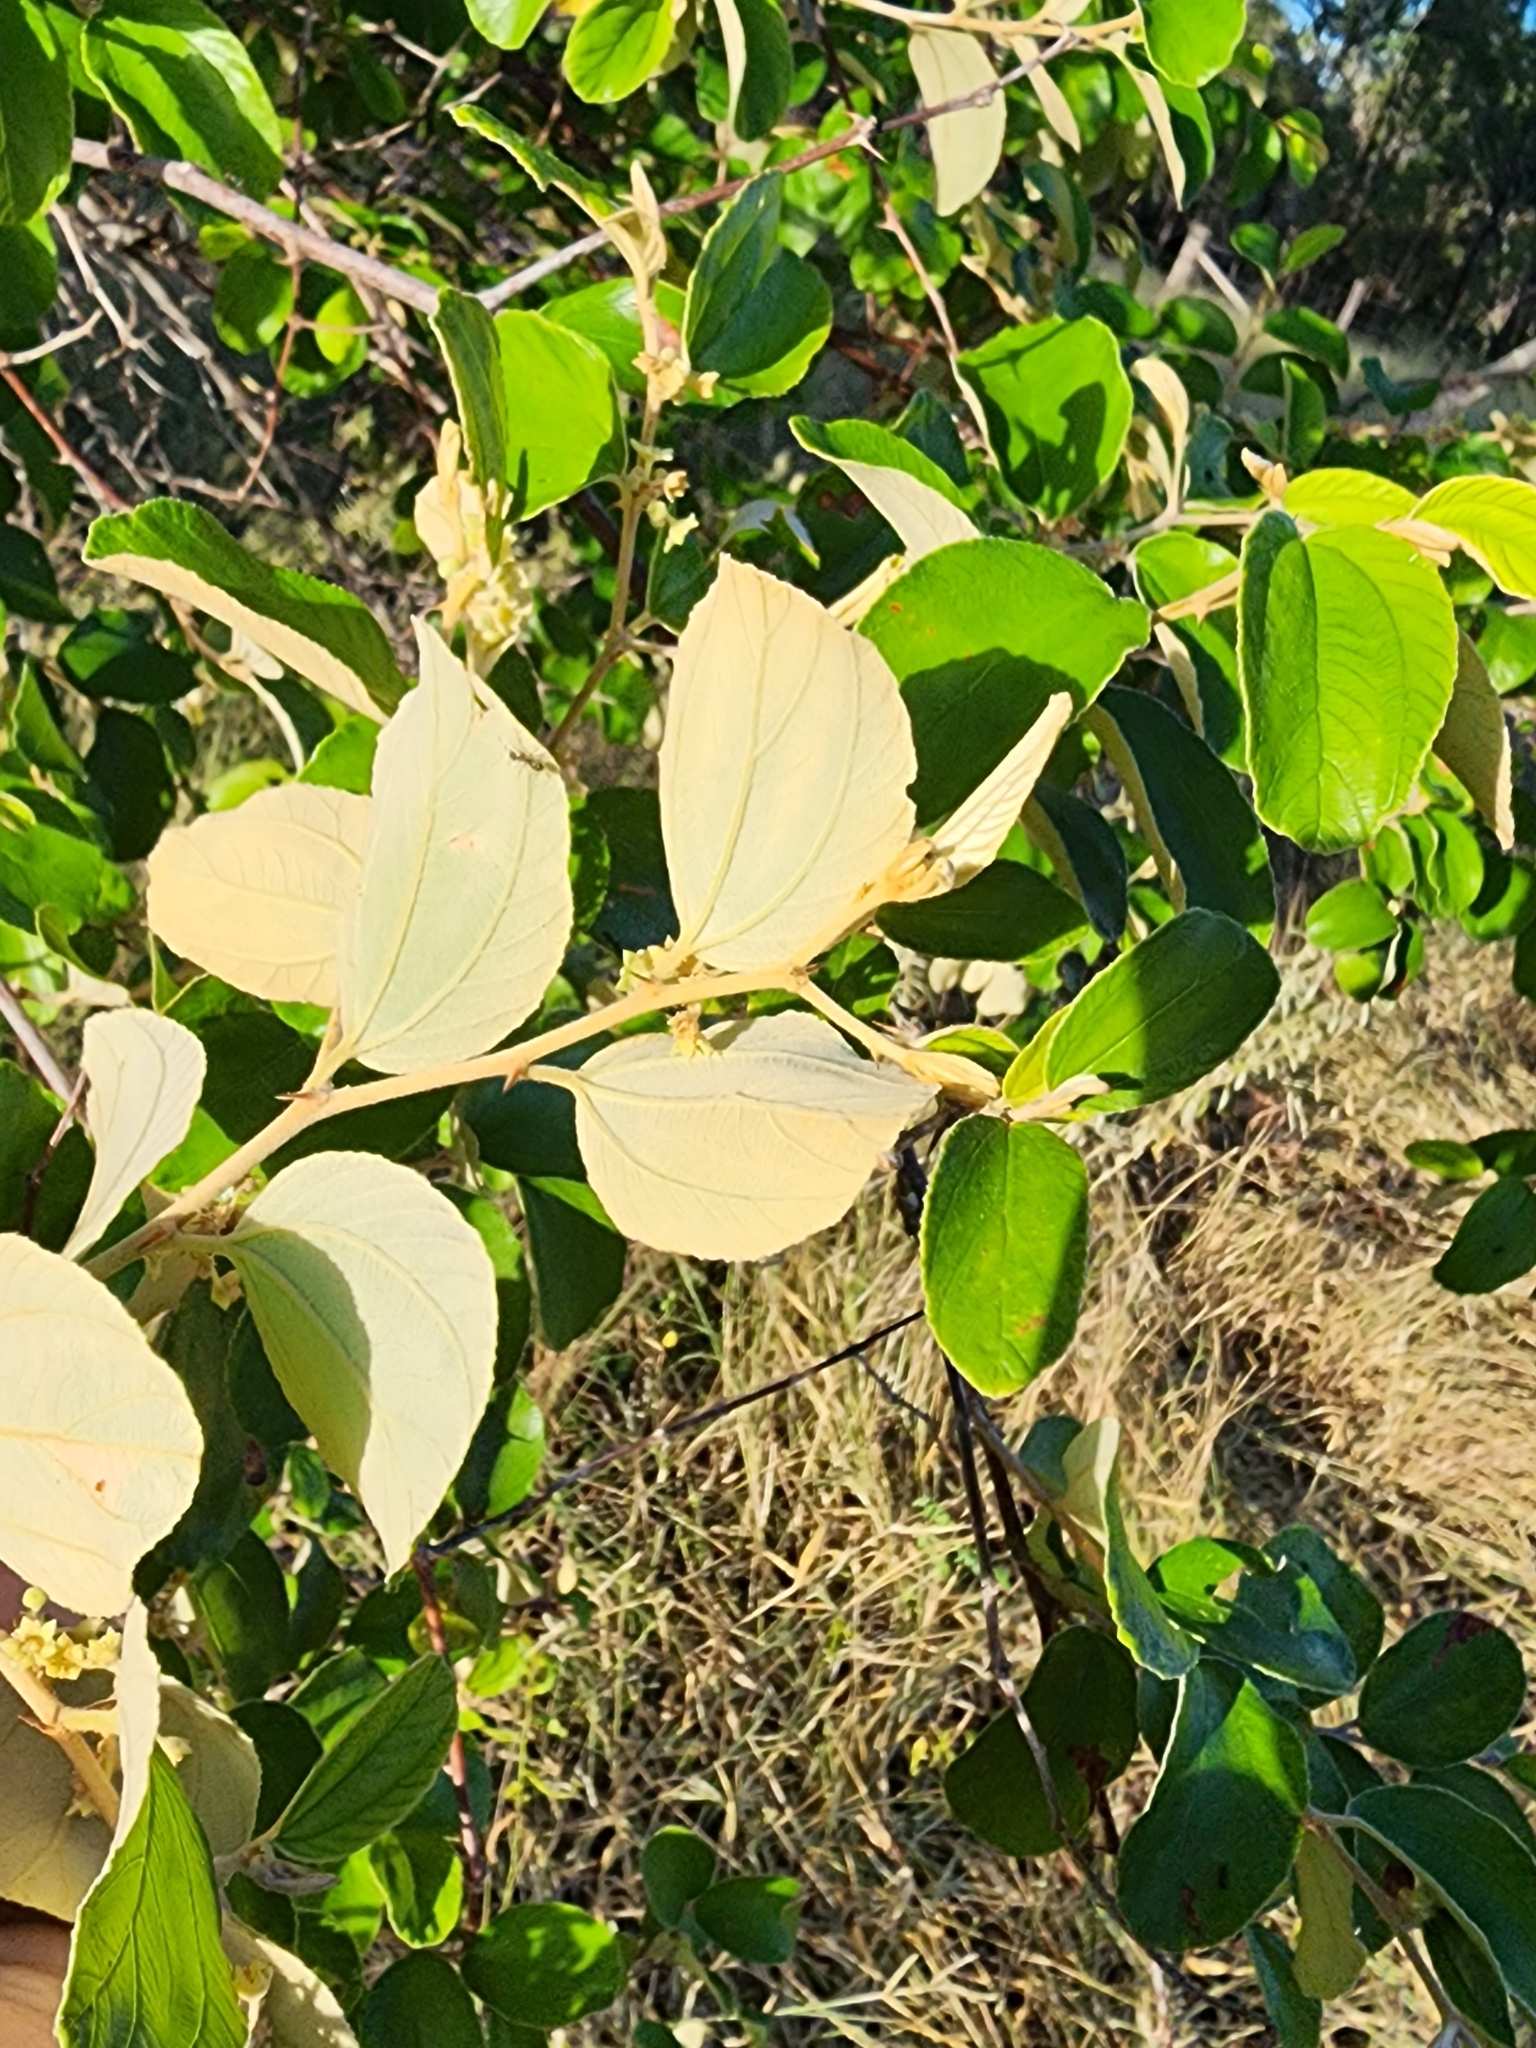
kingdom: Plantae
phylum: Tracheophyta
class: Magnoliopsida
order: Rosales
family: Rhamnaceae
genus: Ziziphus
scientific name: Ziziphus mauritiana
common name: Indian jujube
